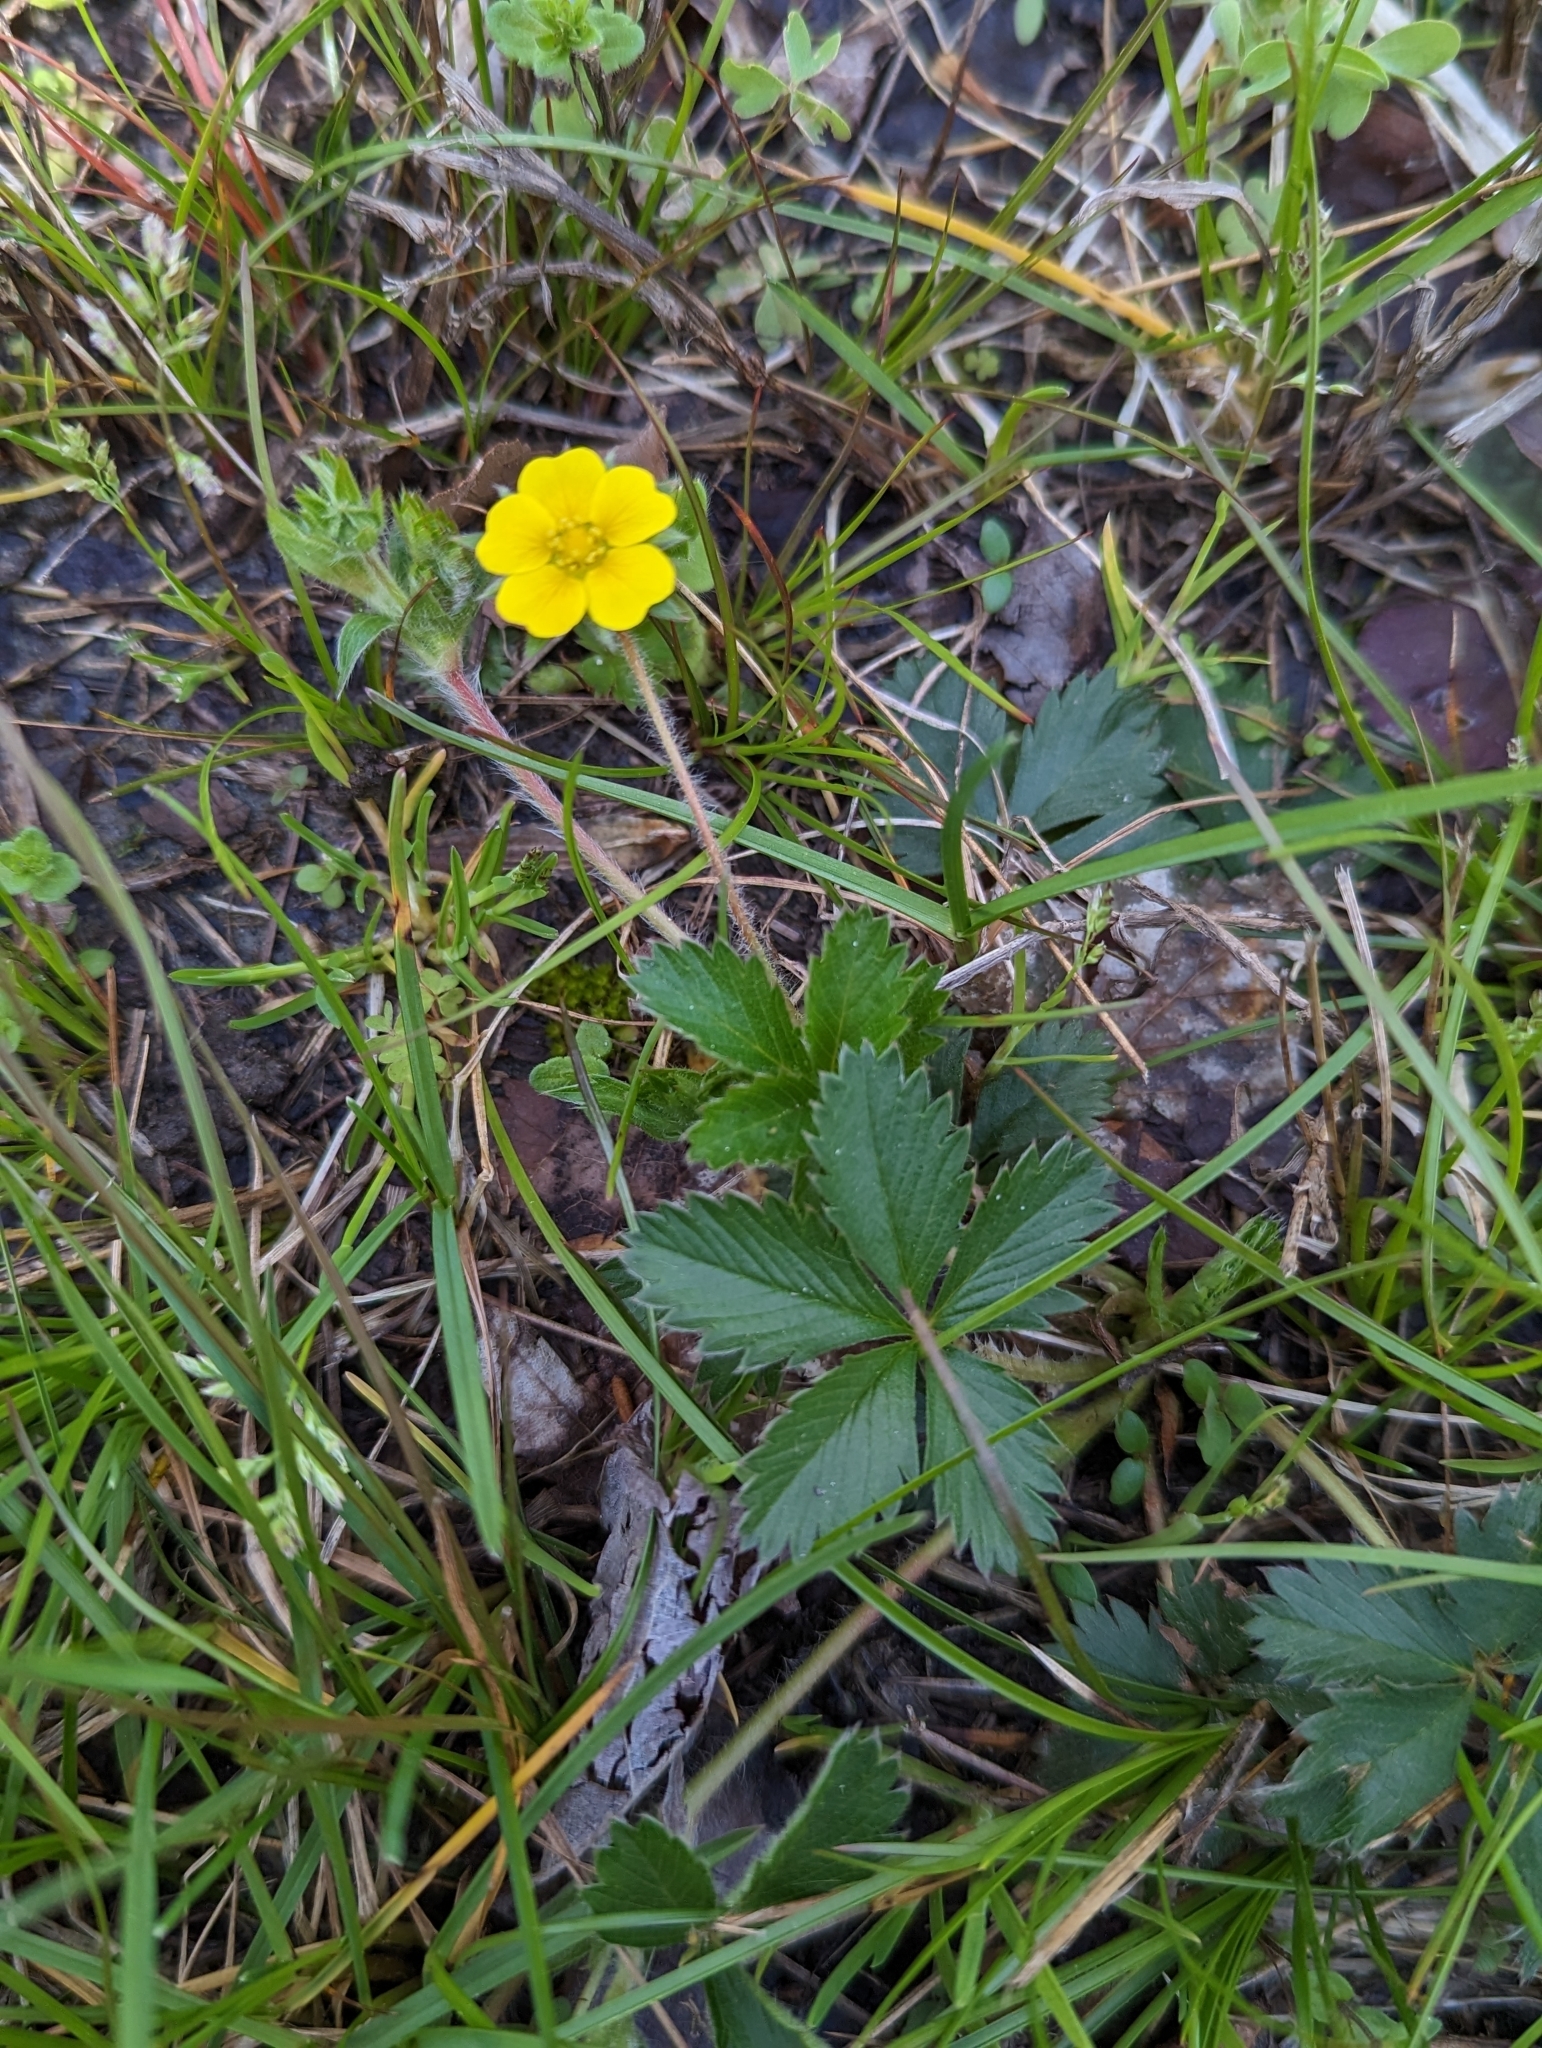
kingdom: Plantae
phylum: Tracheophyta
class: Magnoliopsida
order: Rosales
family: Rosaceae
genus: Potentilla
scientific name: Potentilla canadensis
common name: Canada cinquefoil
